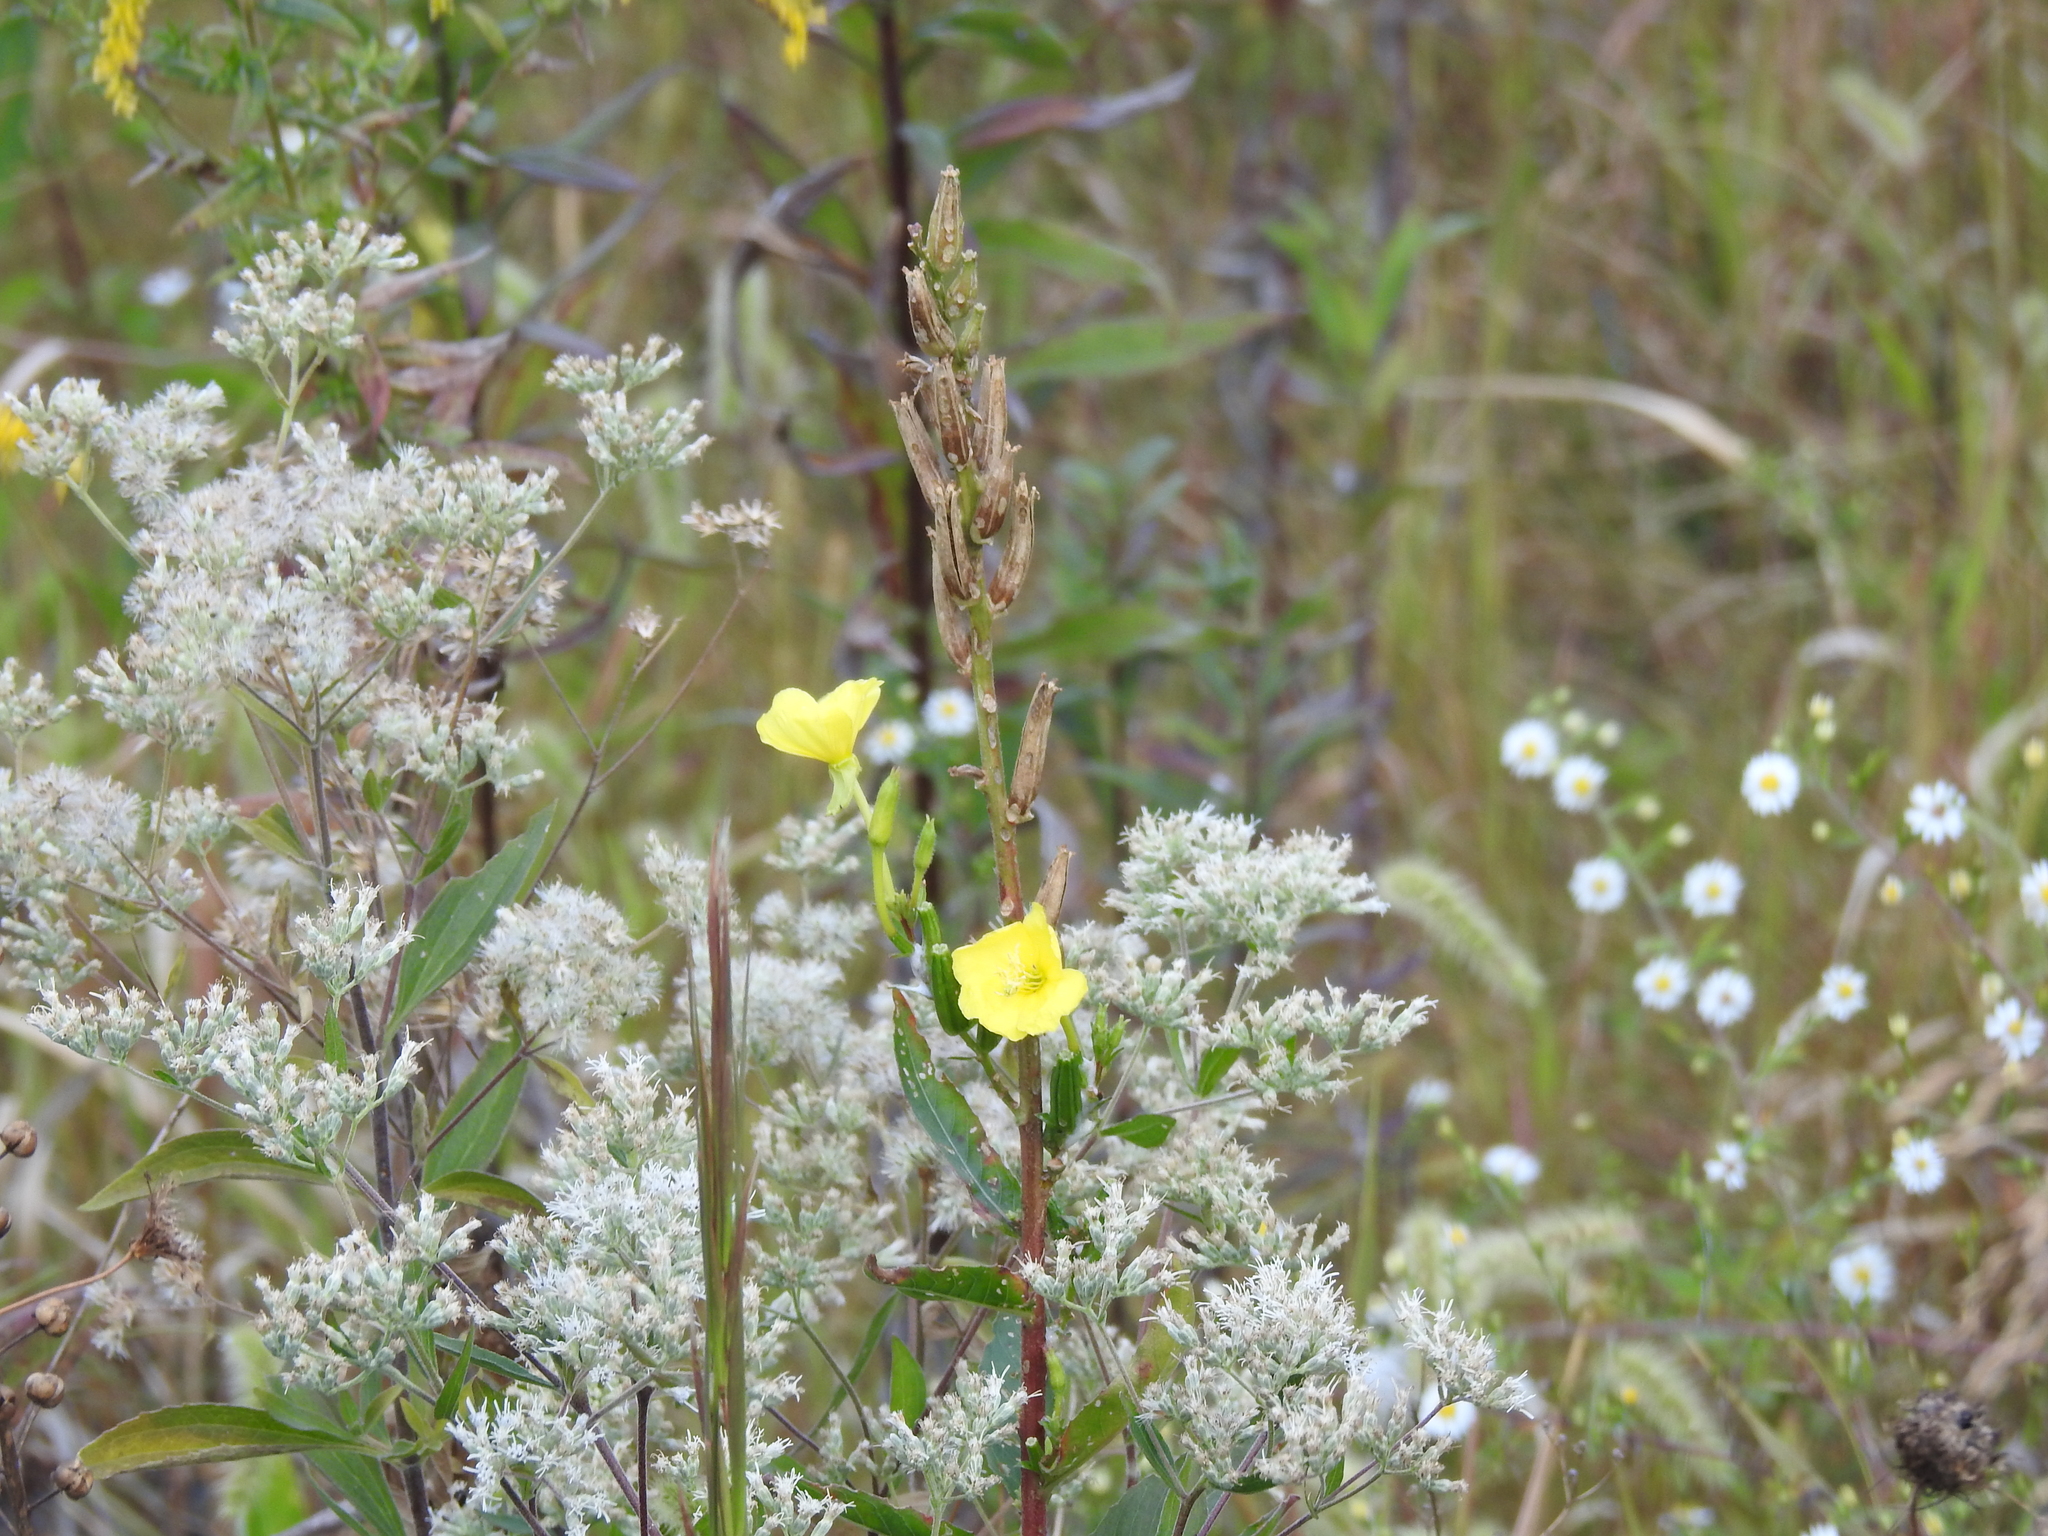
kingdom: Plantae
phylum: Tracheophyta
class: Magnoliopsida
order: Myrtales
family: Onagraceae
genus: Oenothera
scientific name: Oenothera biennis
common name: Common evening-primrose
